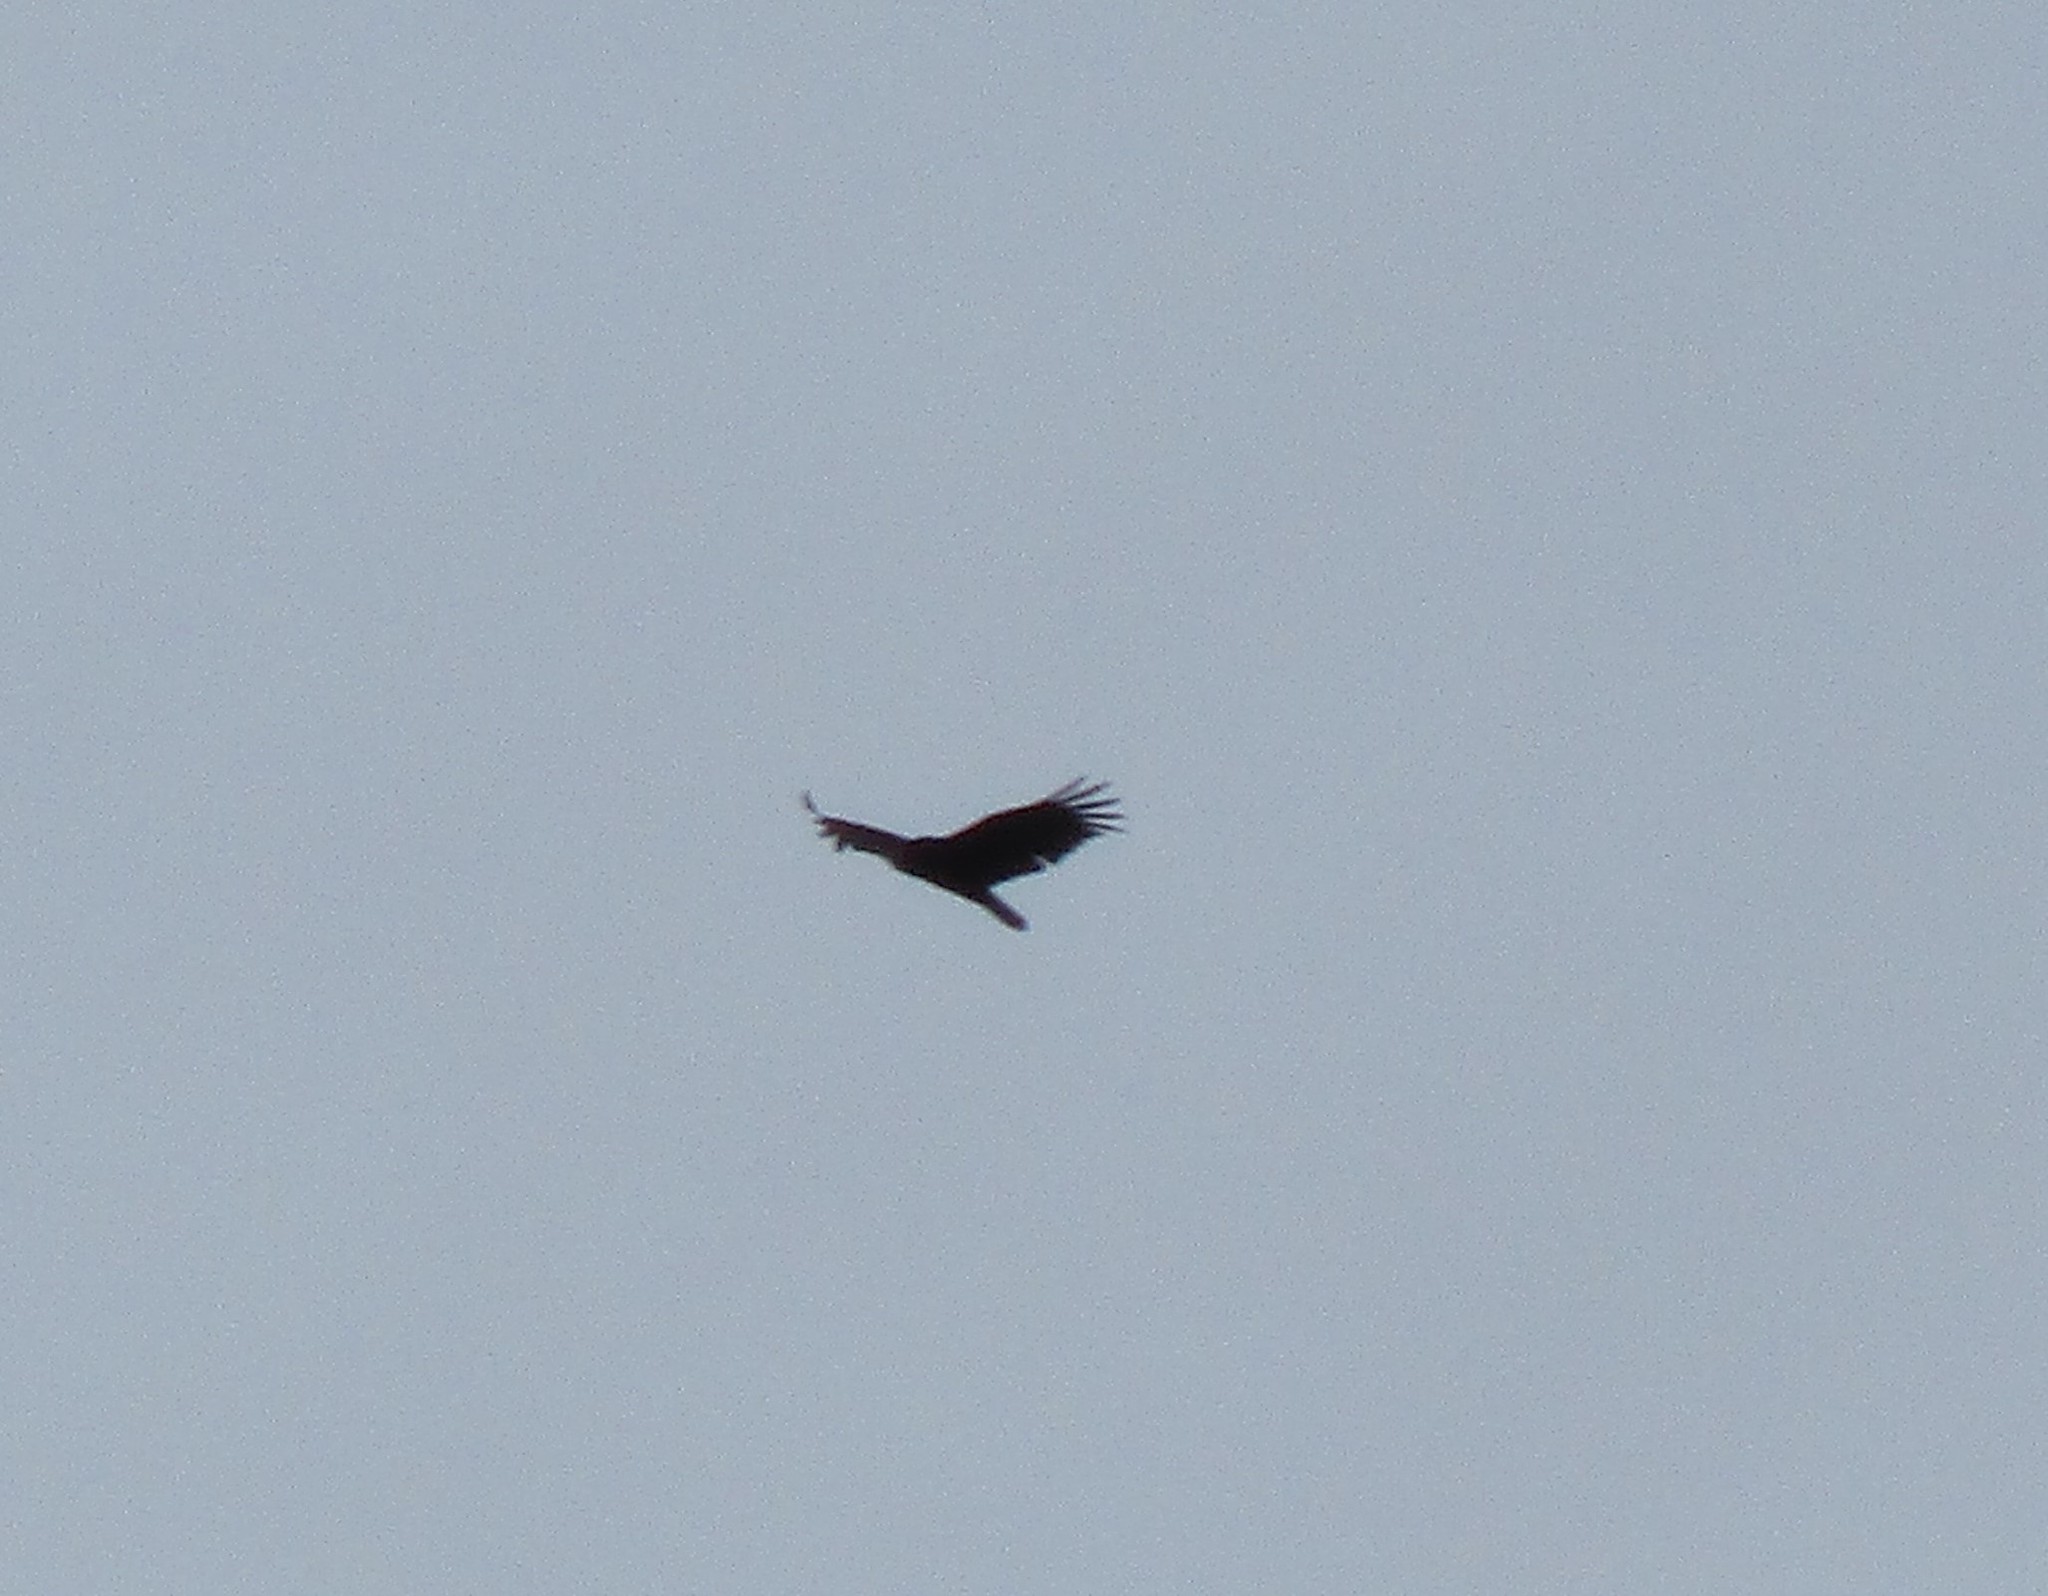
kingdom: Animalia
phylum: Chordata
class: Aves
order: Accipitriformes
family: Cathartidae
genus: Cathartes
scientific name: Cathartes aura
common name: Turkey vulture
